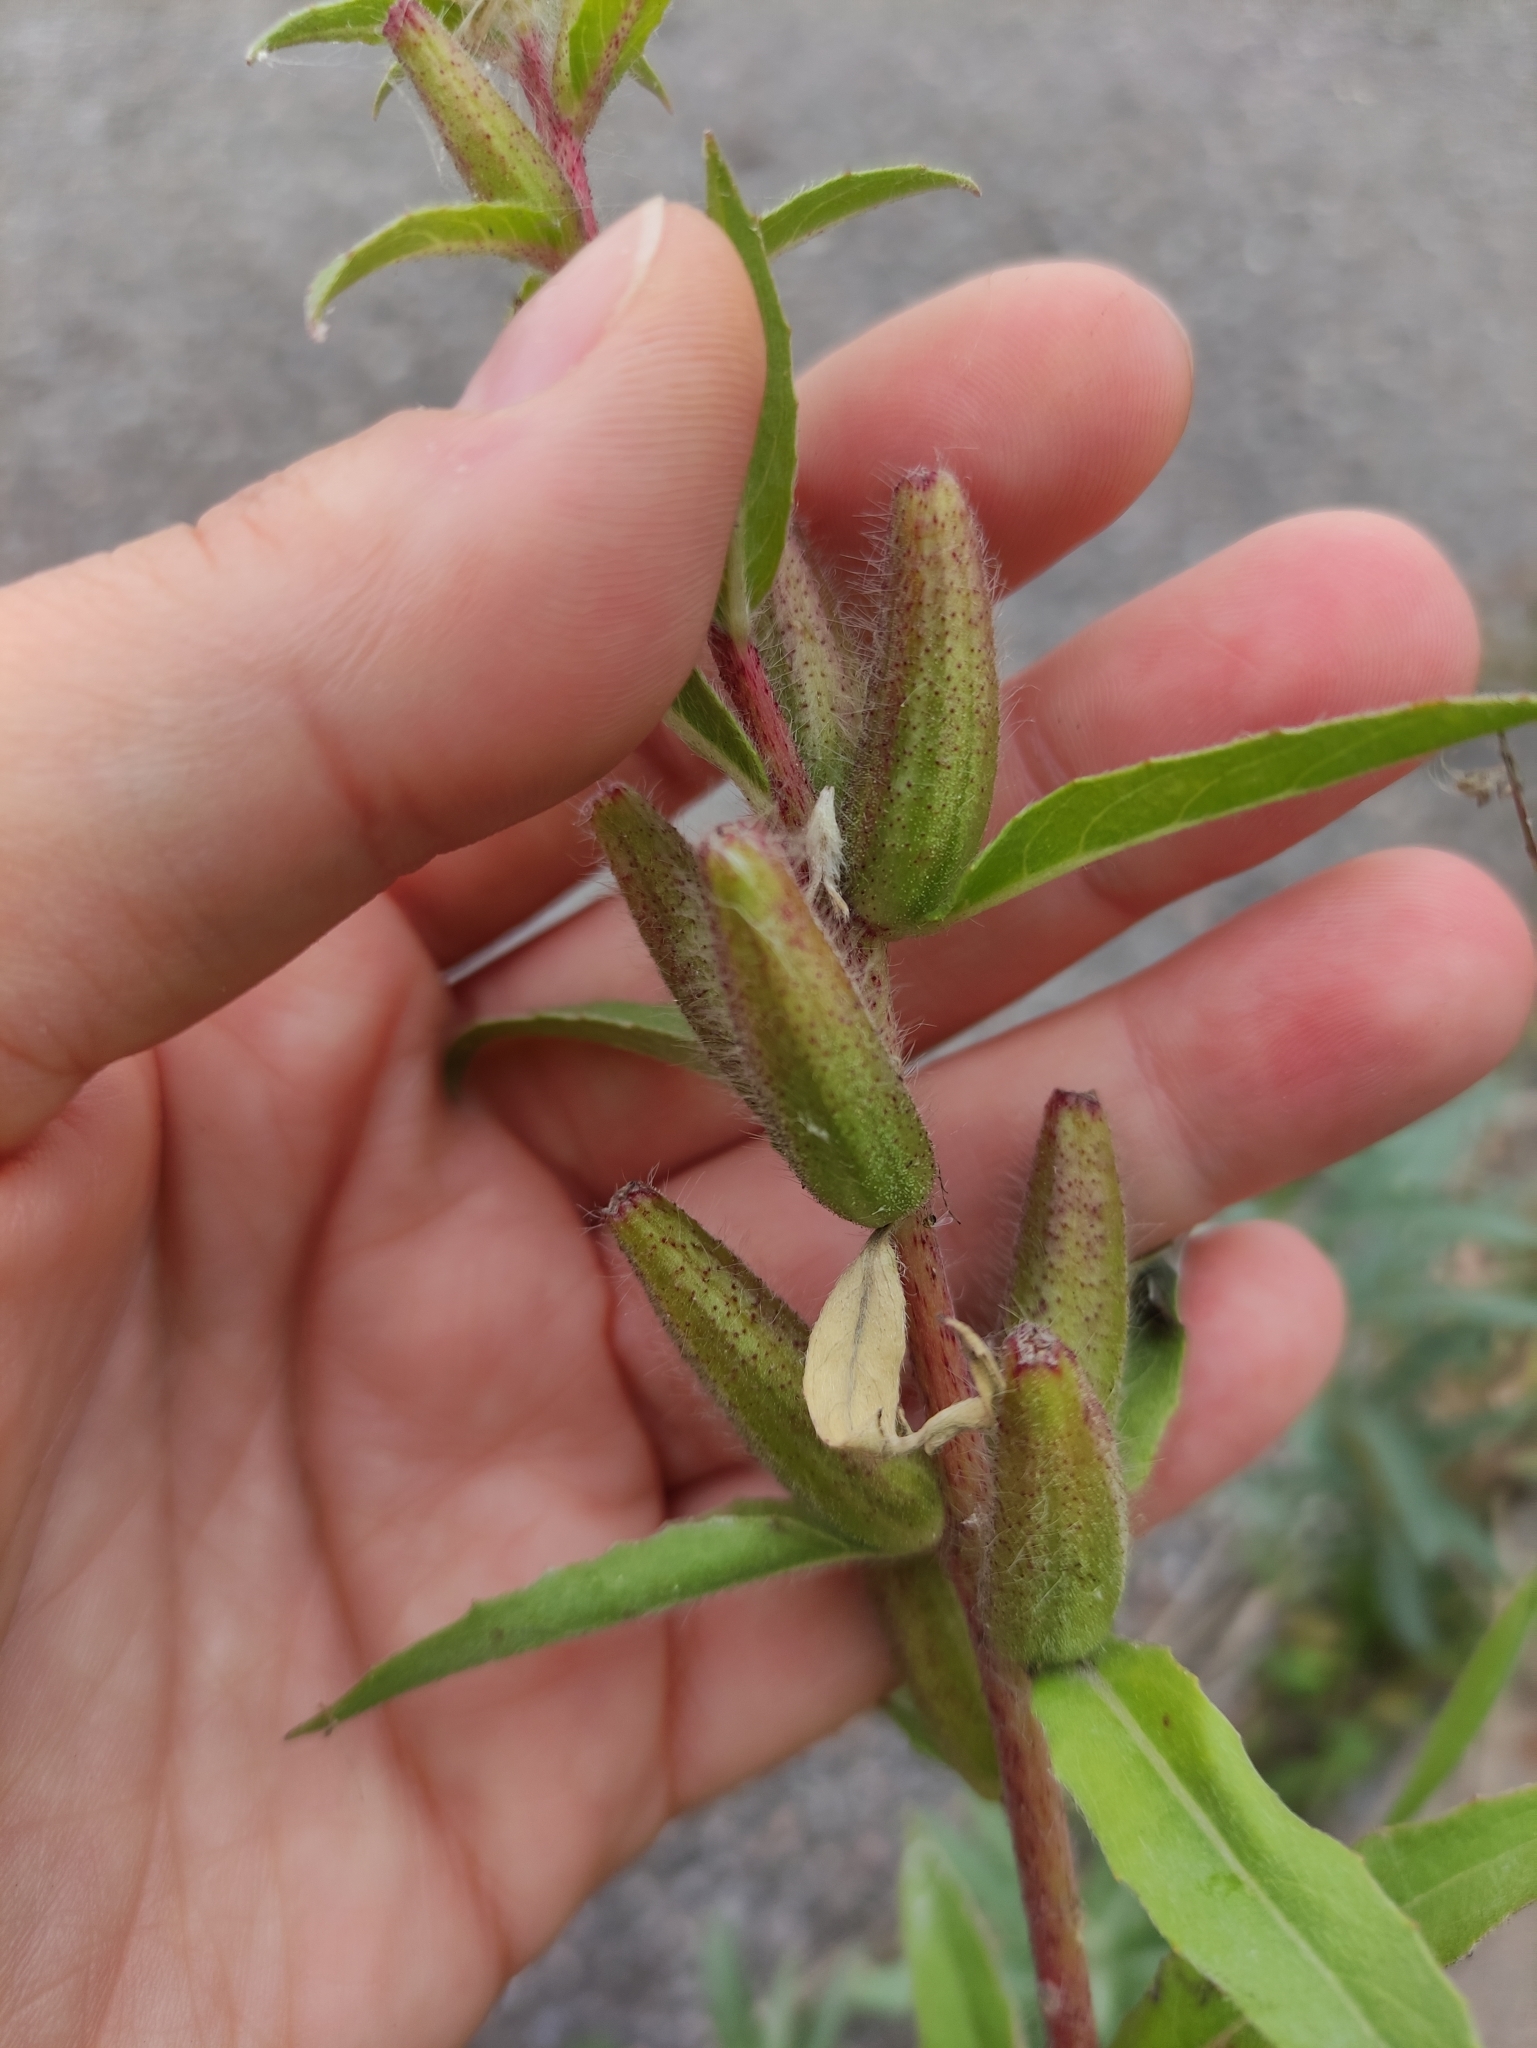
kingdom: Plantae
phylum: Tracheophyta
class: Magnoliopsida
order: Myrtales
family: Onagraceae
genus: Oenothera
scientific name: Oenothera rubricaulis
